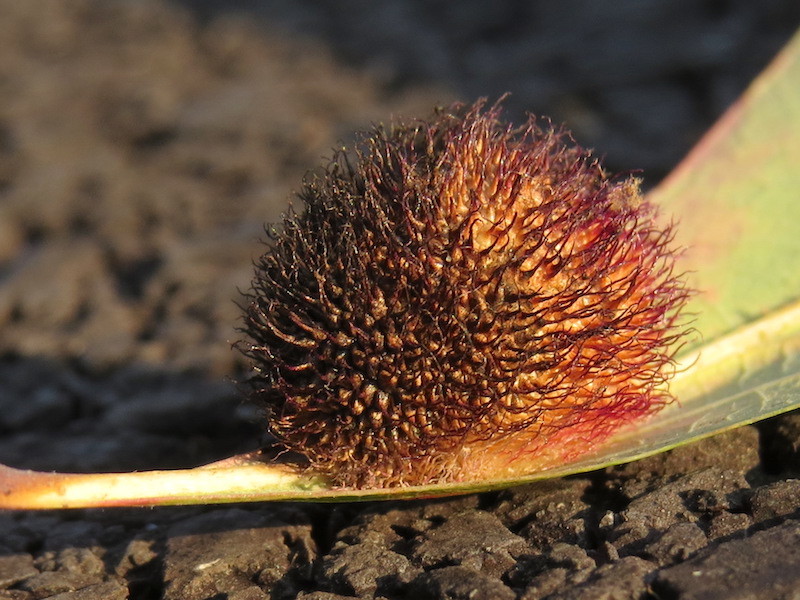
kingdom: Animalia
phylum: Arthropoda
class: Insecta
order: Hymenoptera
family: Cynipidae
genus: Acraspis
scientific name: Acraspis erinacei
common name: Hedgehog gall wasp
